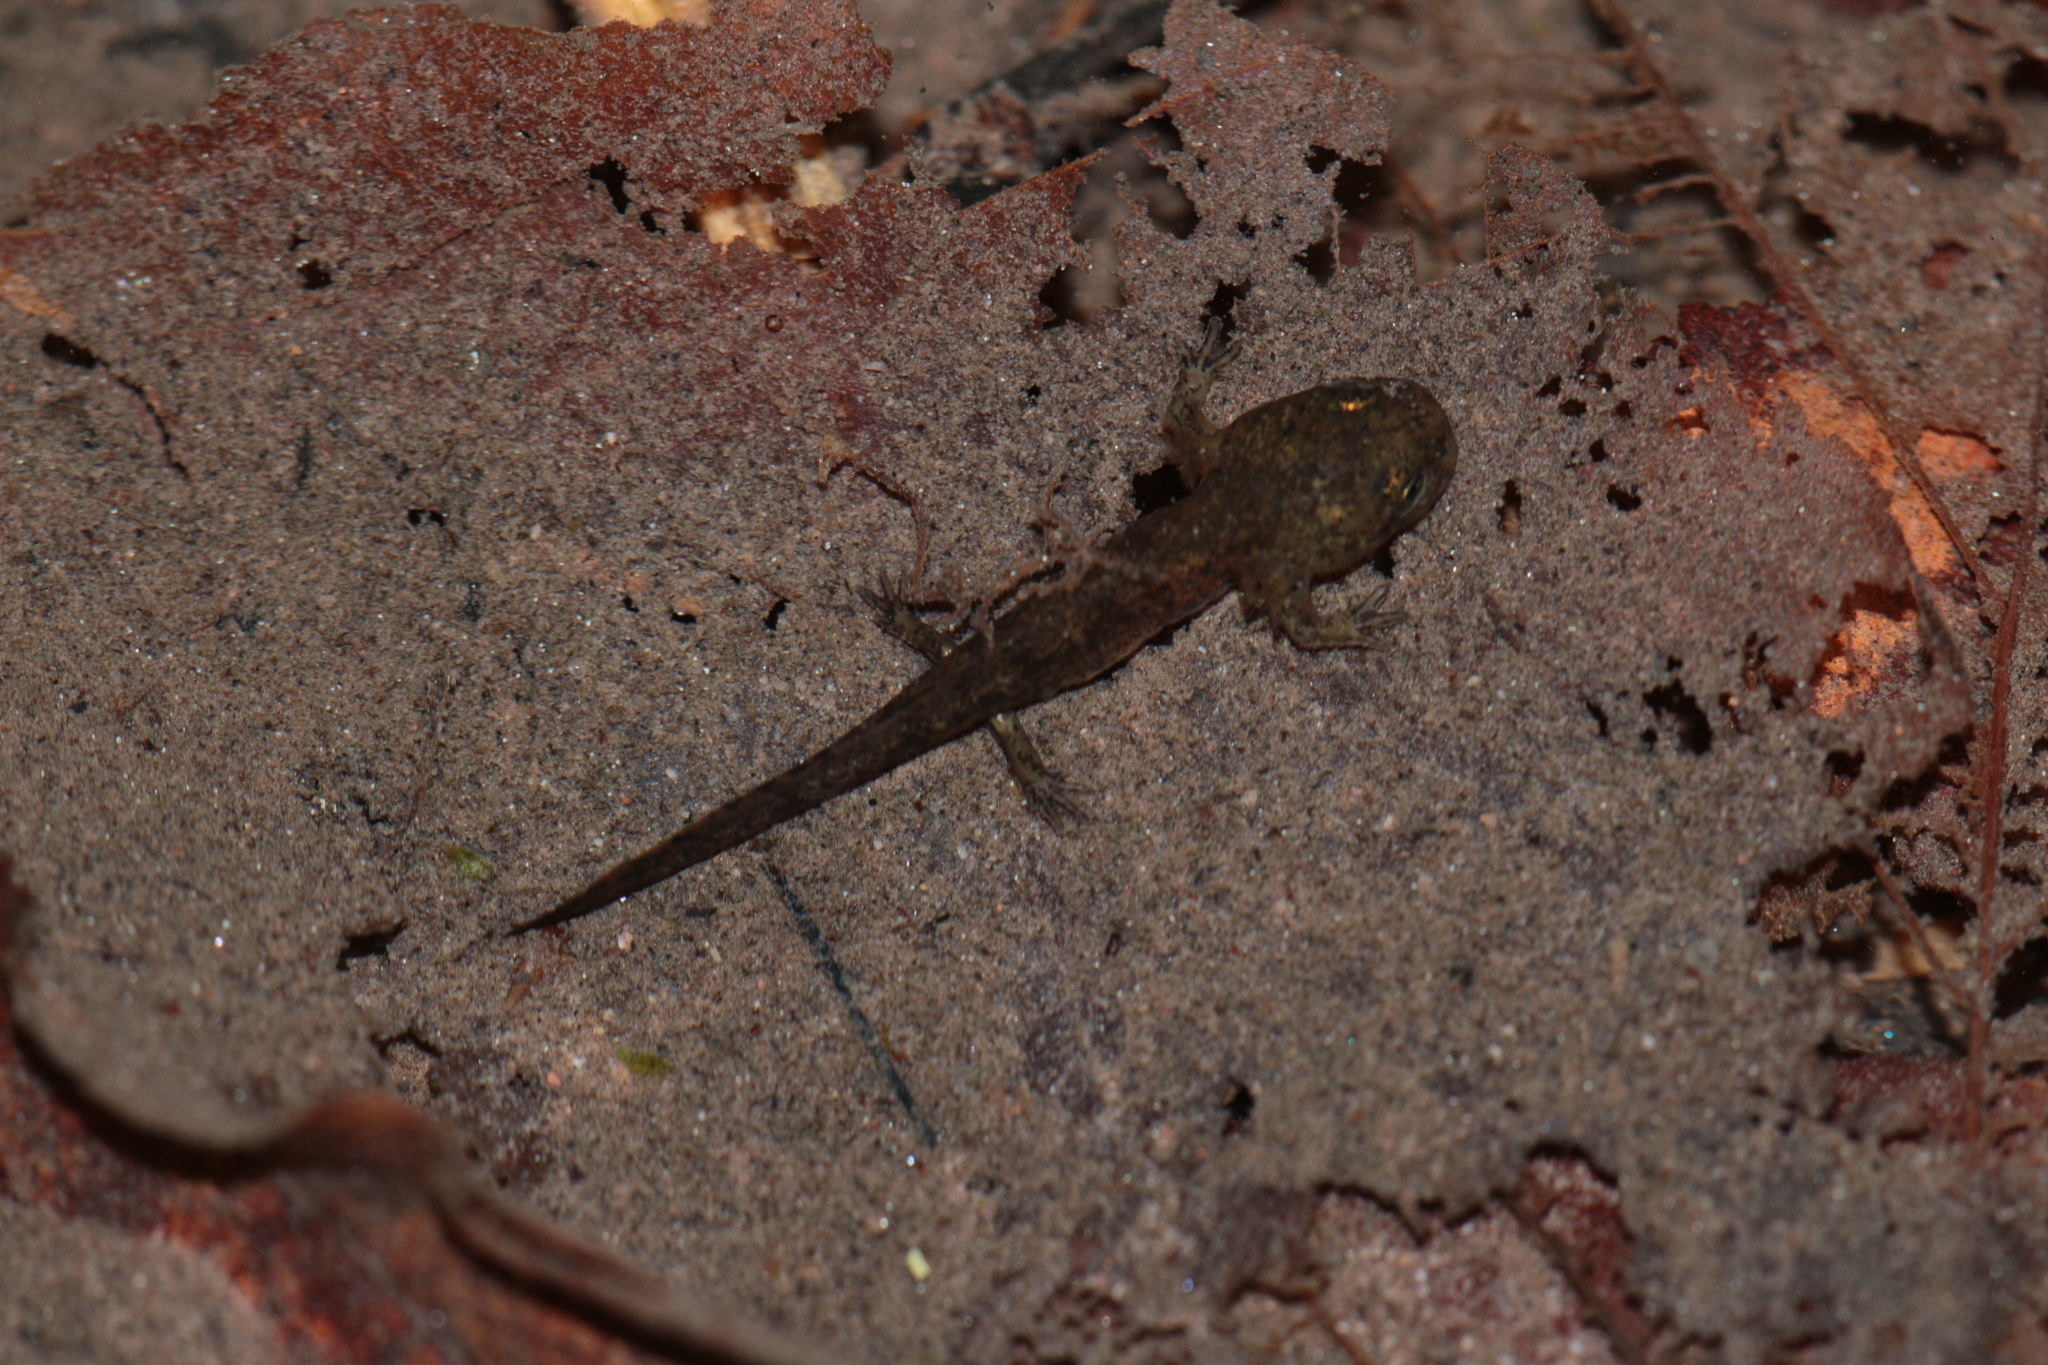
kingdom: Animalia
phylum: Chordata
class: Amphibia
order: Caudata
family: Salamandridae
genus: Salamandra
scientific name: Salamandra salamandra
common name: Fire salamander
